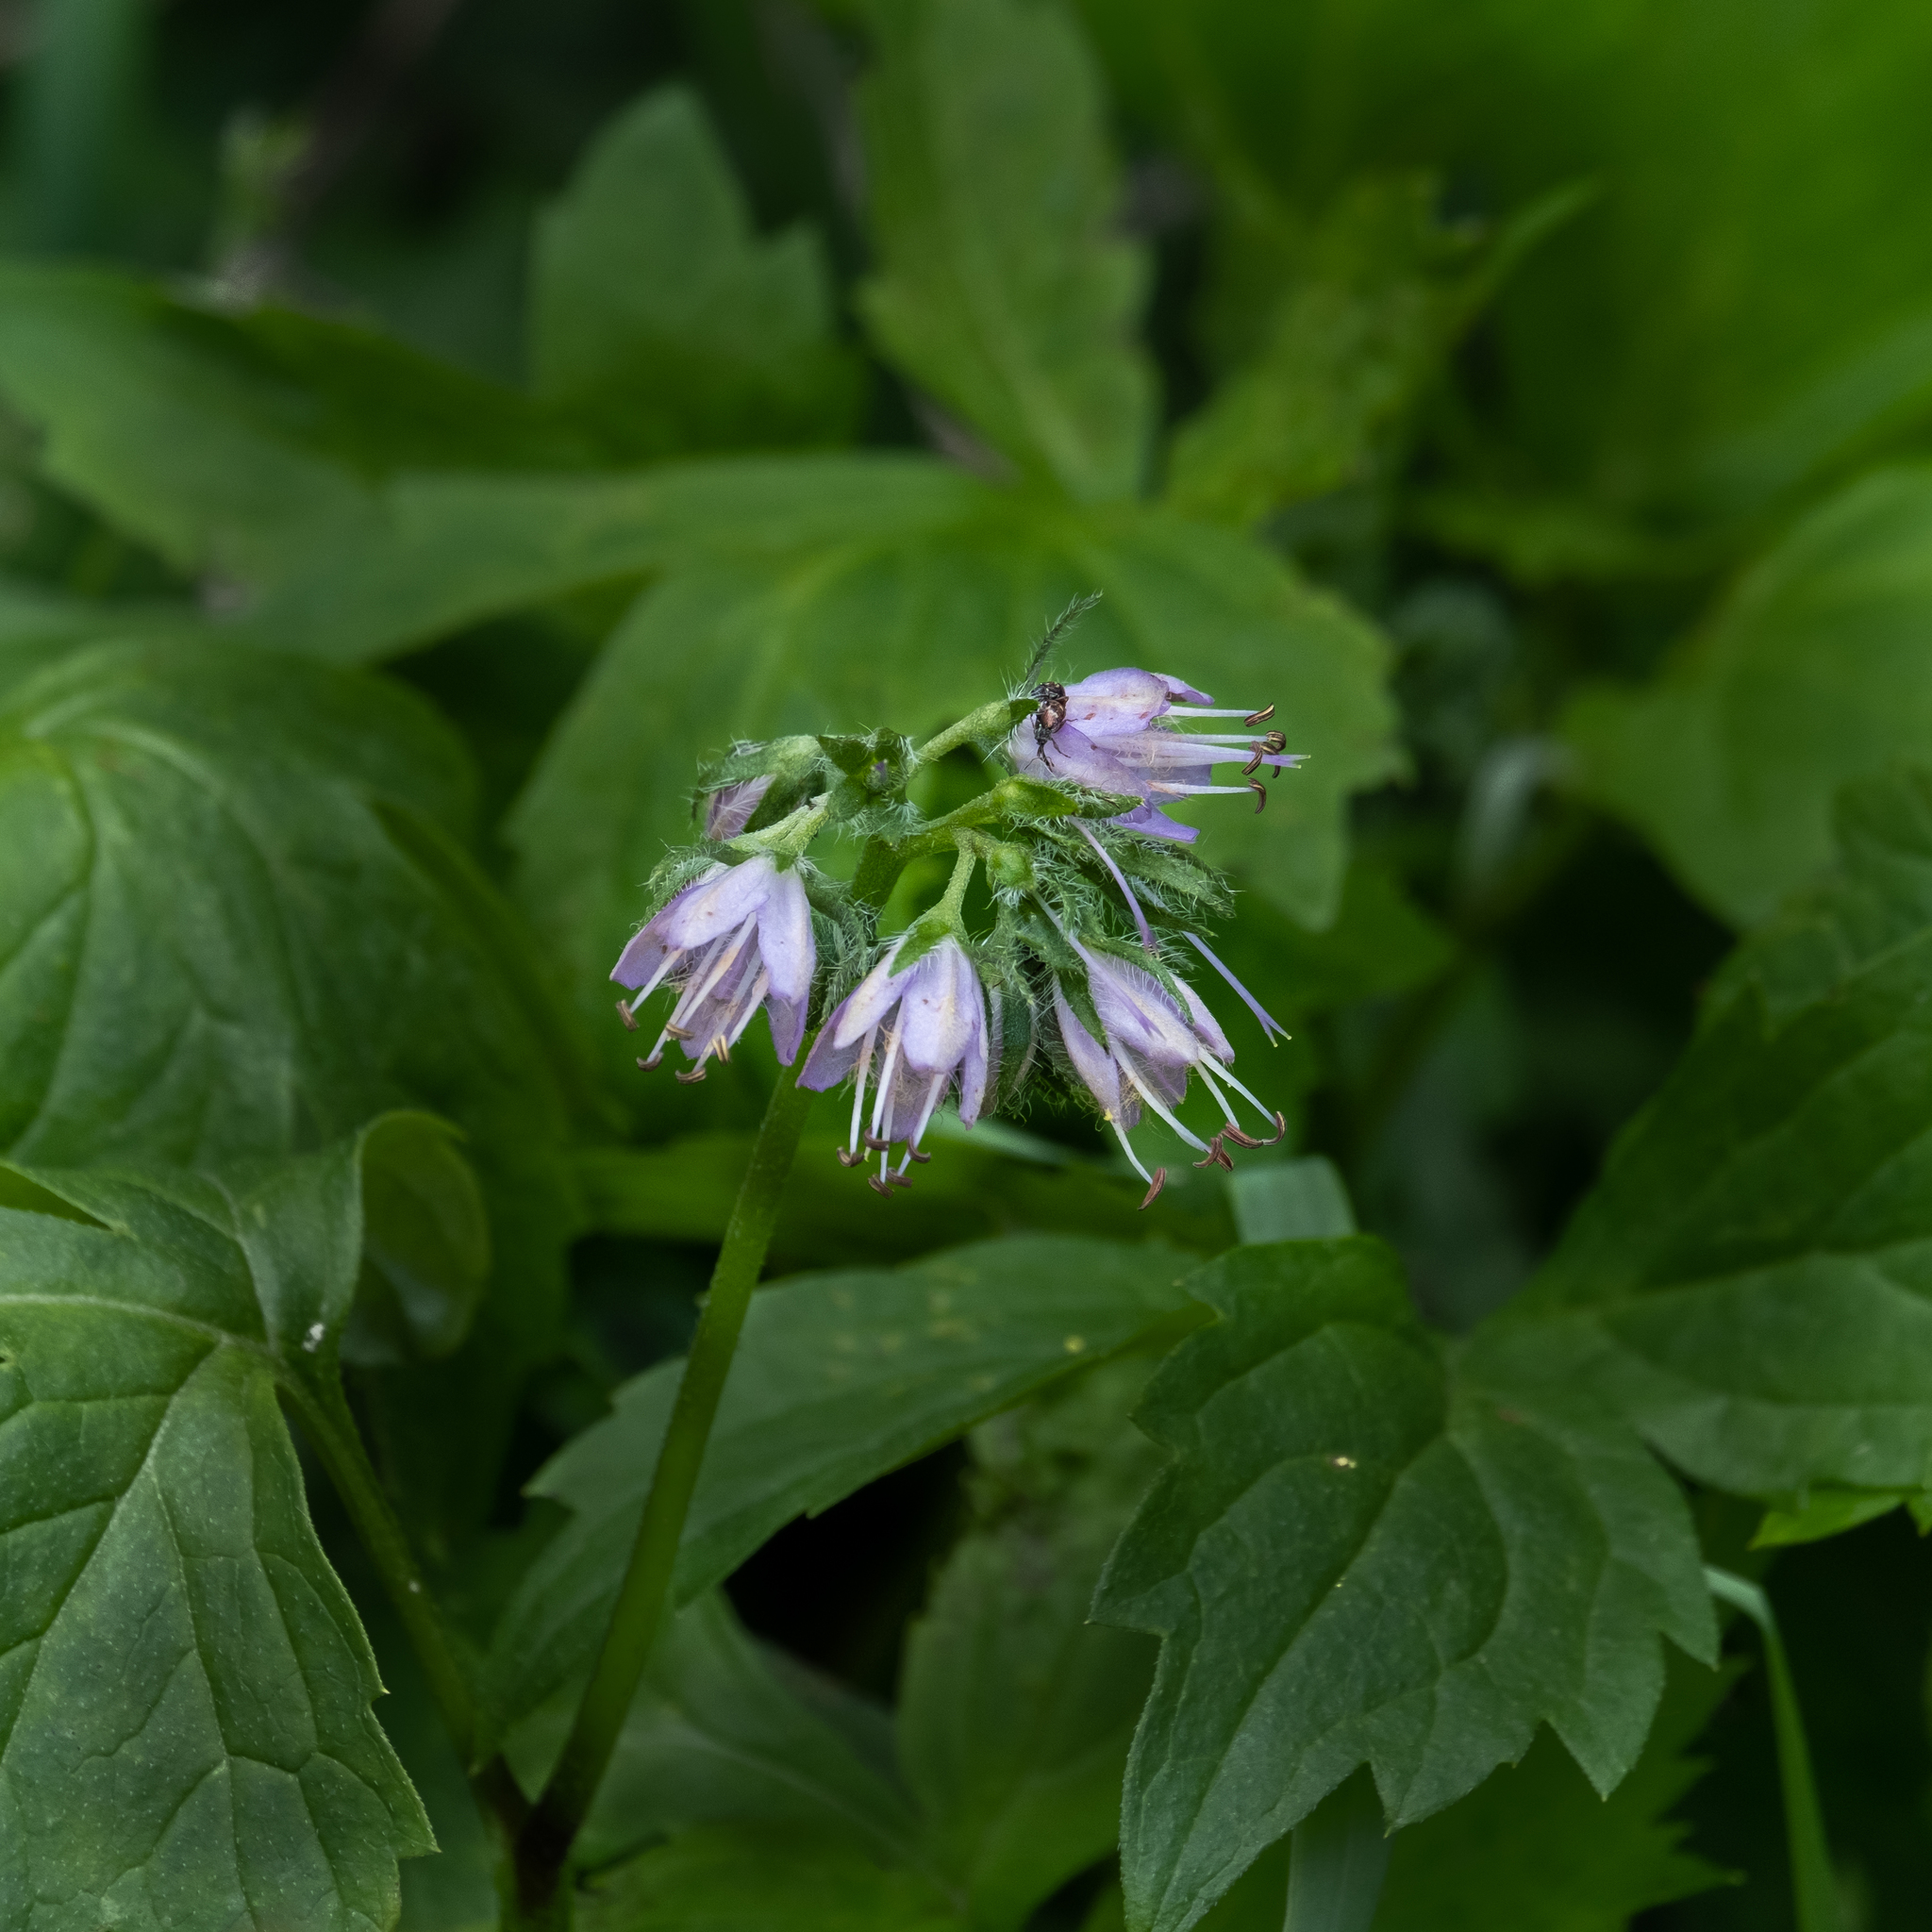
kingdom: Plantae
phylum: Tracheophyta
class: Magnoliopsida
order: Boraginales
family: Hydrophyllaceae
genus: Hydrophyllum
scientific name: Hydrophyllum virginianum
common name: Virginia waterleaf
